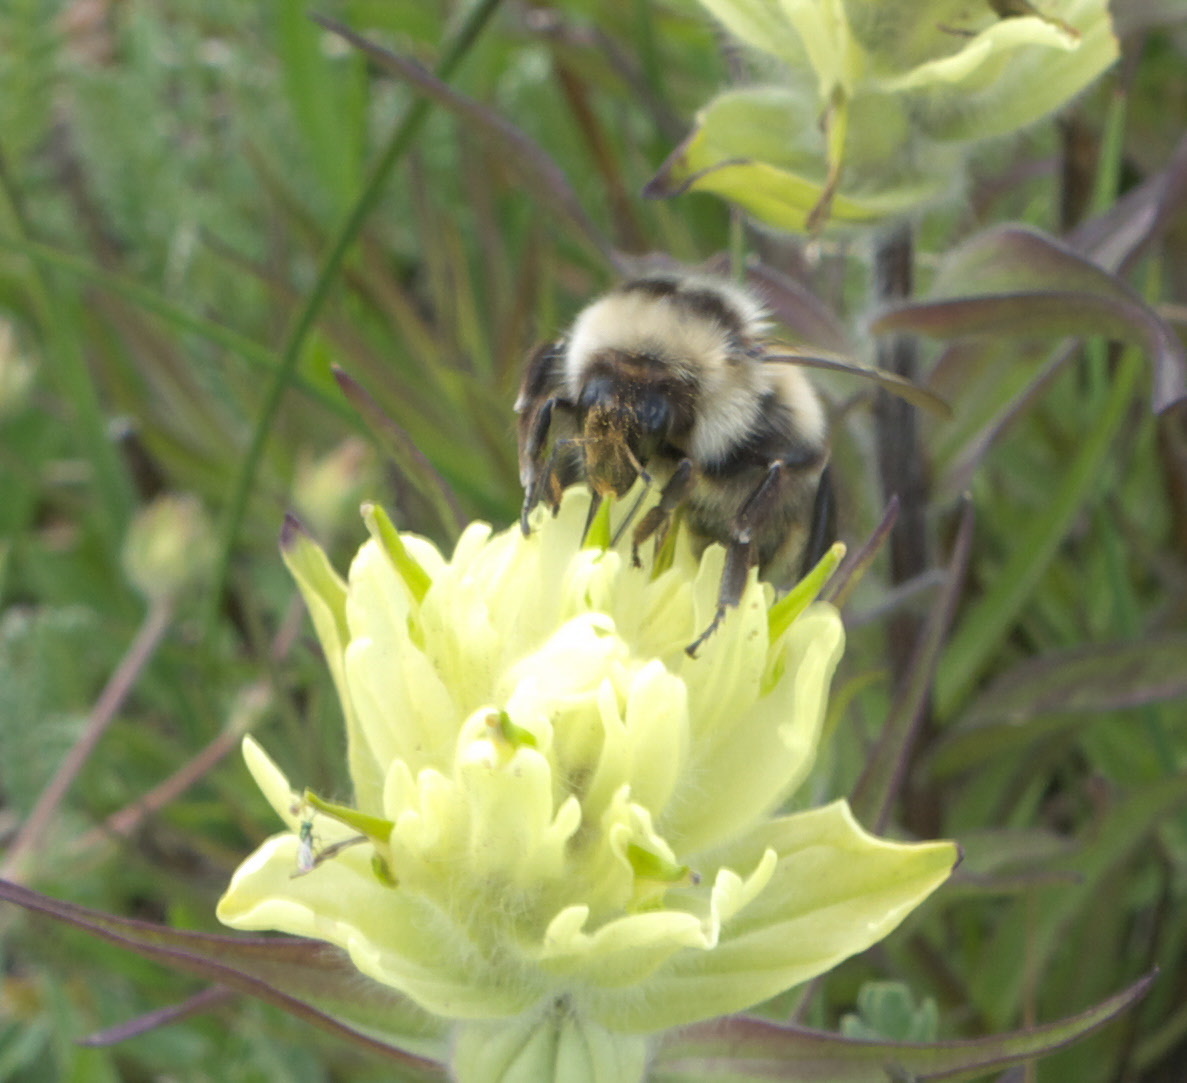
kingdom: Animalia
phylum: Arthropoda
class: Insecta
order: Hymenoptera
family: Apidae
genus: Bombus
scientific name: Bombus
